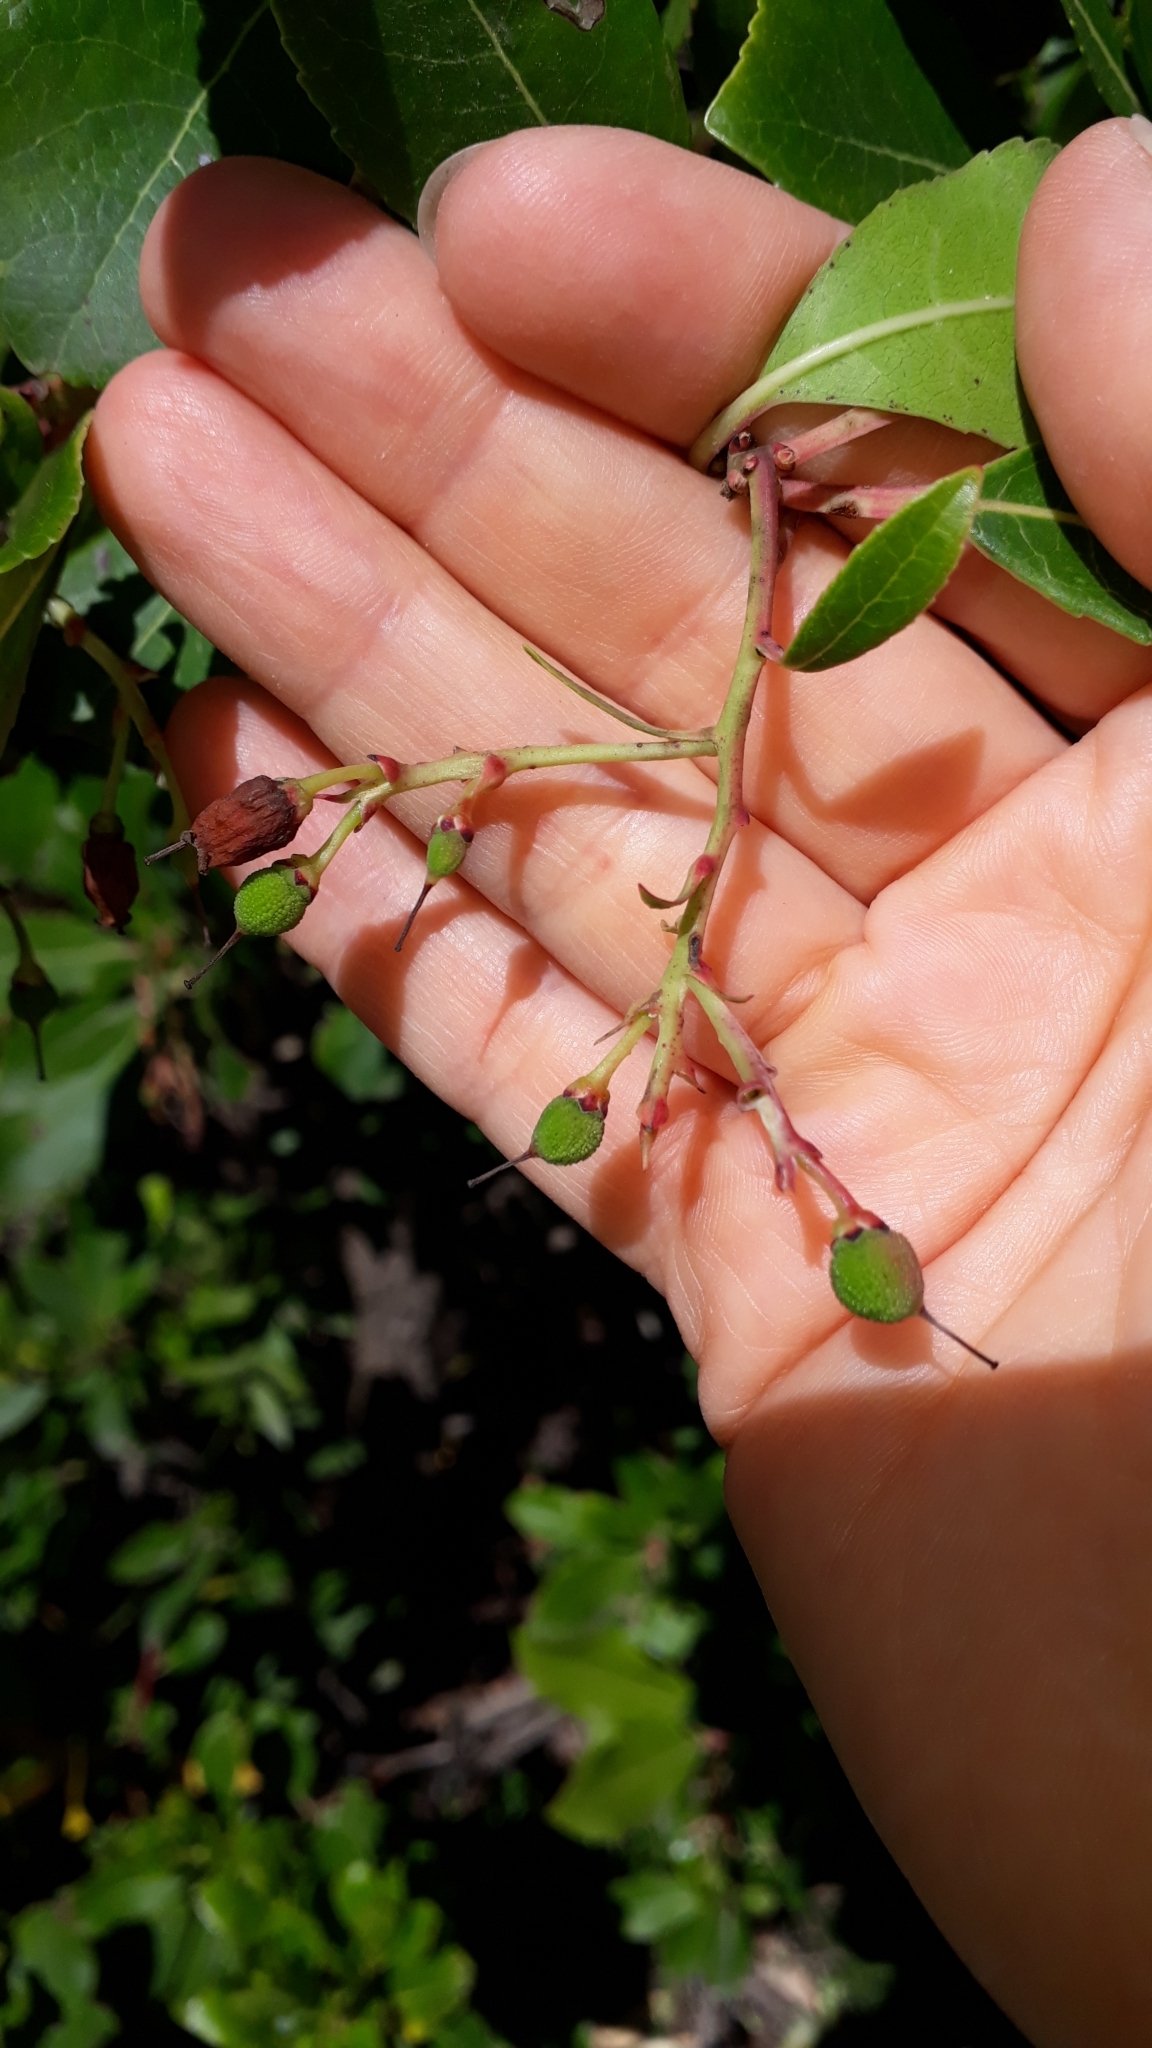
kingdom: Plantae
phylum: Tracheophyta
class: Magnoliopsida
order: Ericales
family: Ericaceae
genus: Arbutus
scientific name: Arbutus unedo
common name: Strawberry-tree
